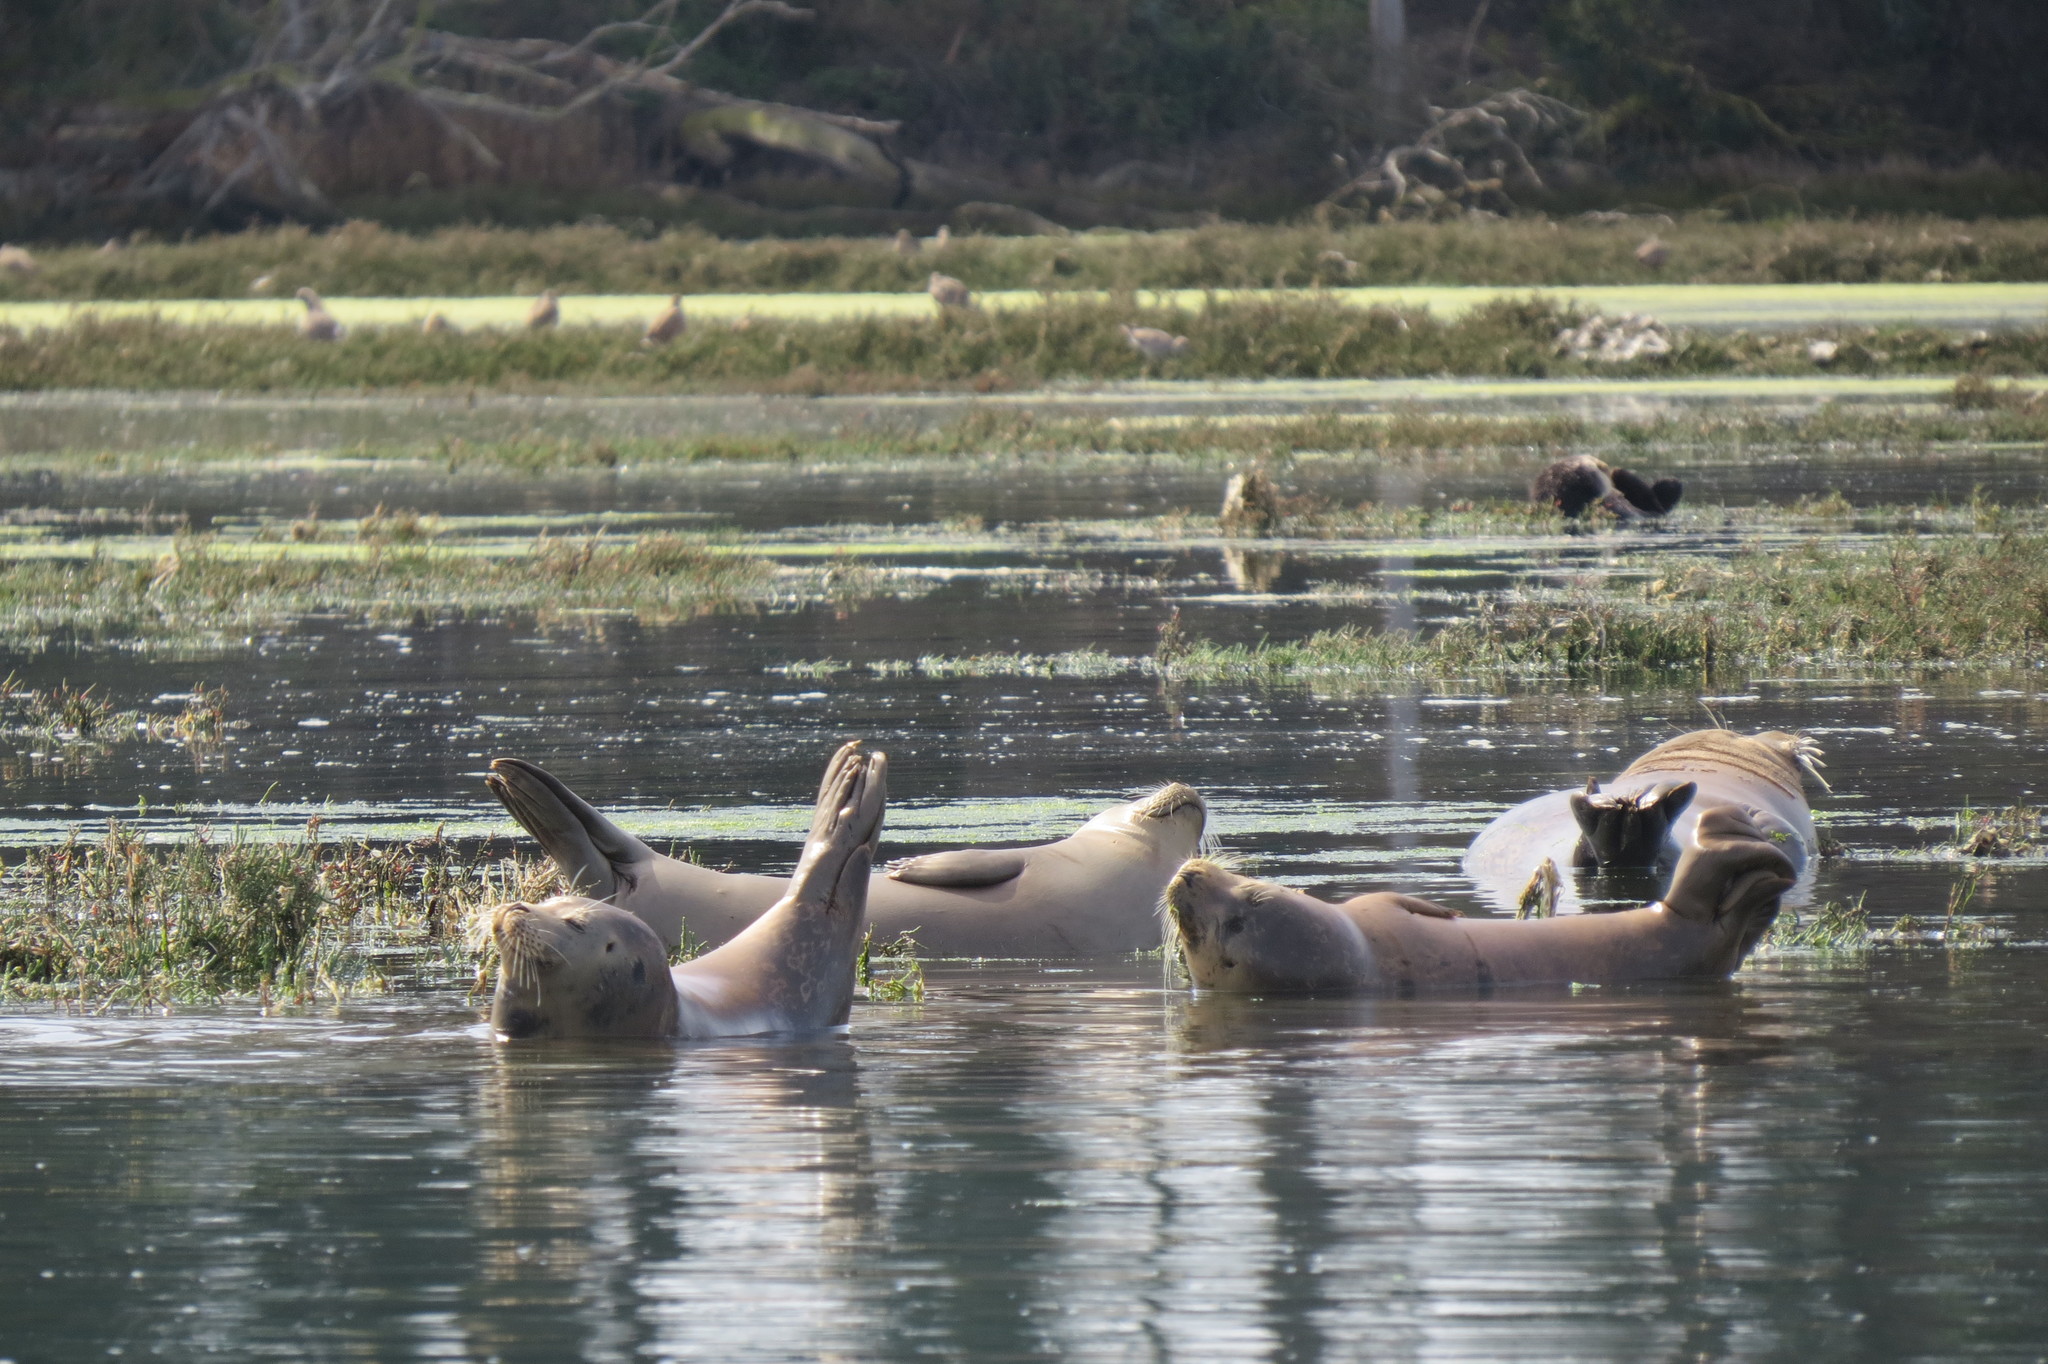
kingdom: Animalia
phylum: Chordata
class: Mammalia
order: Carnivora
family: Phocidae
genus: Phoca
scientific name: Phoca vitulina
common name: Harbor seal
